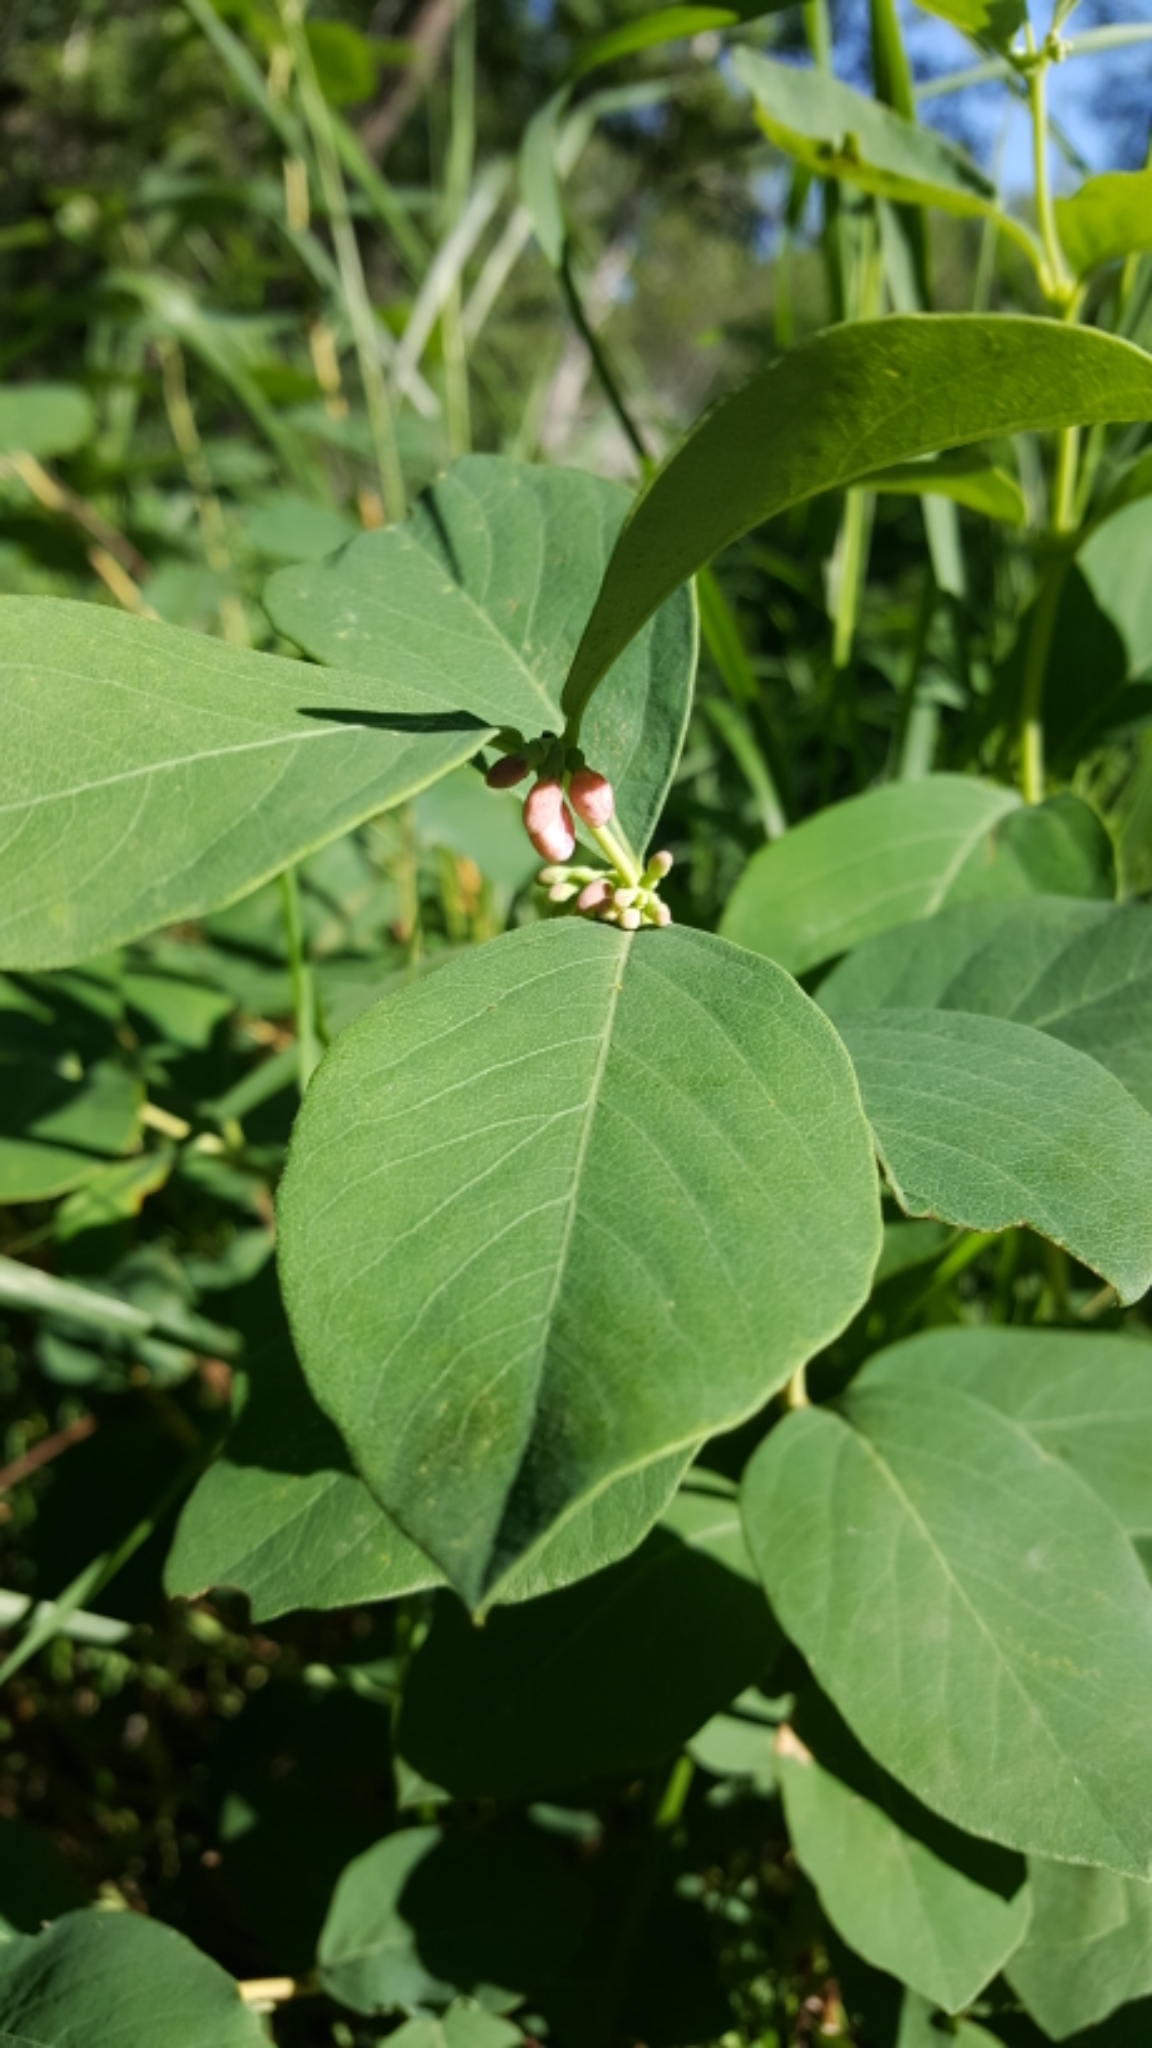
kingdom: Plantae
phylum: Tracheophyta
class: Magnoliopsida
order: Dipsacales
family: Caprifoliaceae
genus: Symphoricarpos
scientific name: Symphoricarpos occidentalis
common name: Wolfberry
